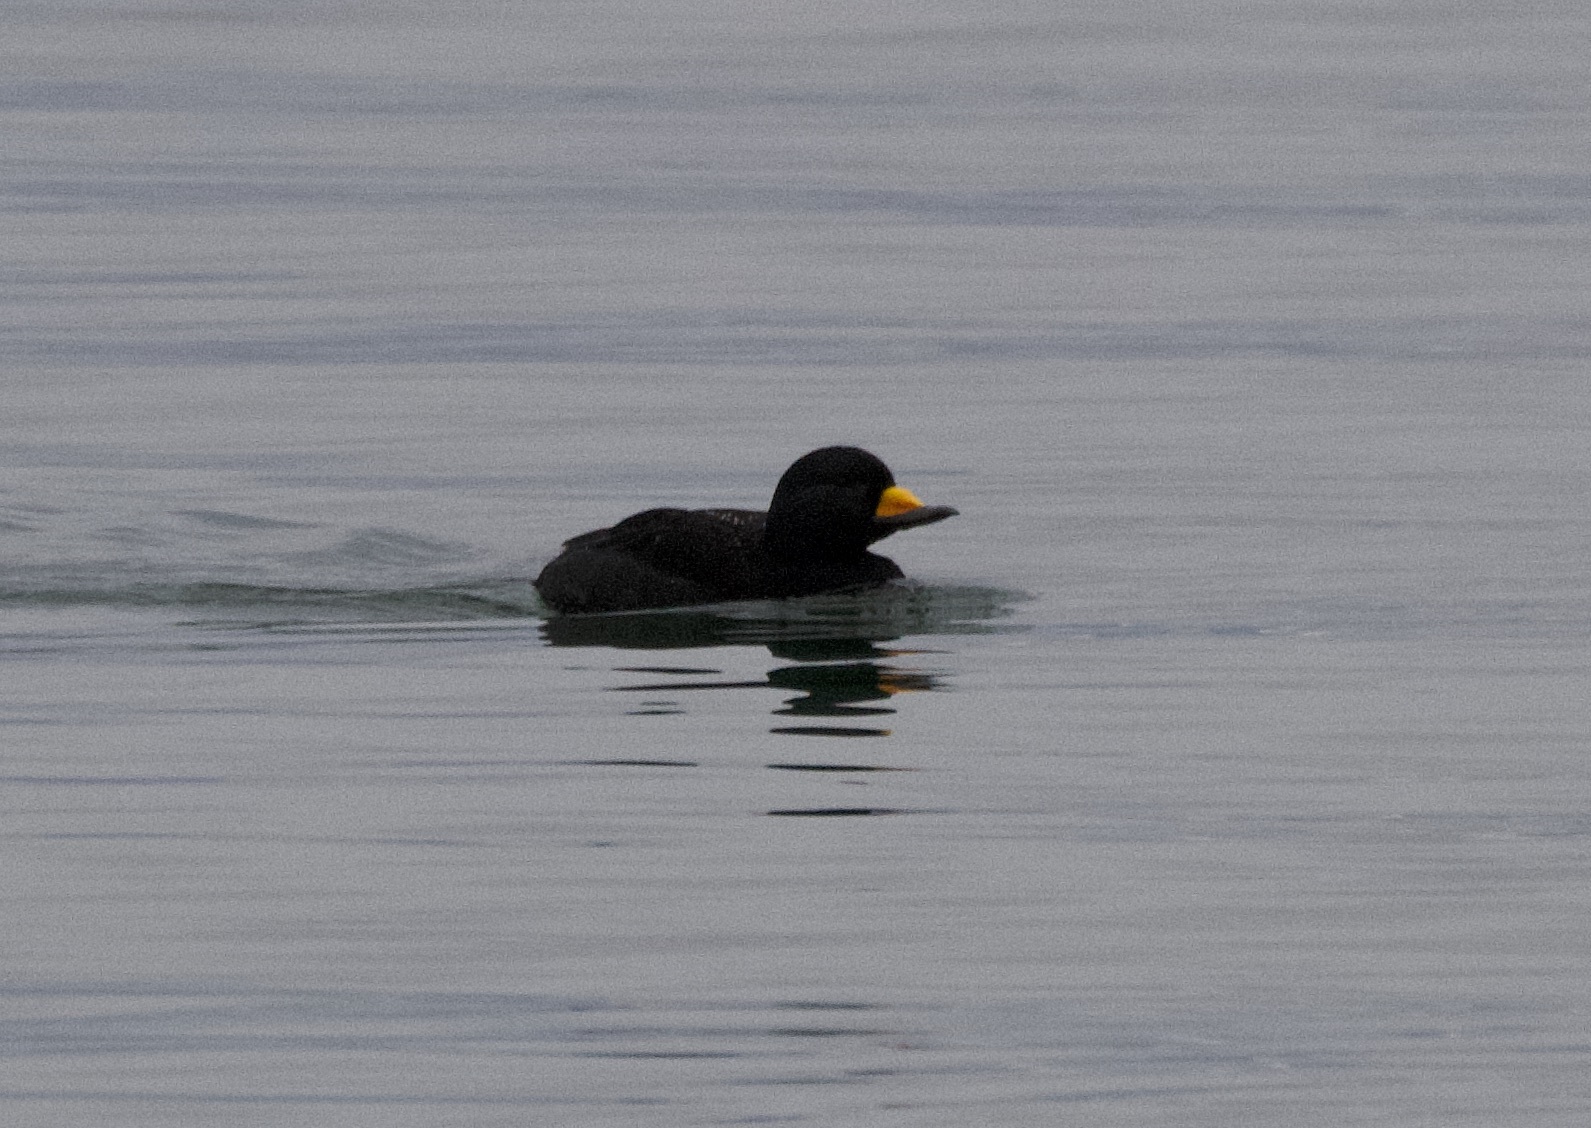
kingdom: Animalia
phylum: Chordata
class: Aves
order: Anseriformes
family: Anatidae
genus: Melanitta
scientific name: Melanitta americana
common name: Black scoter
